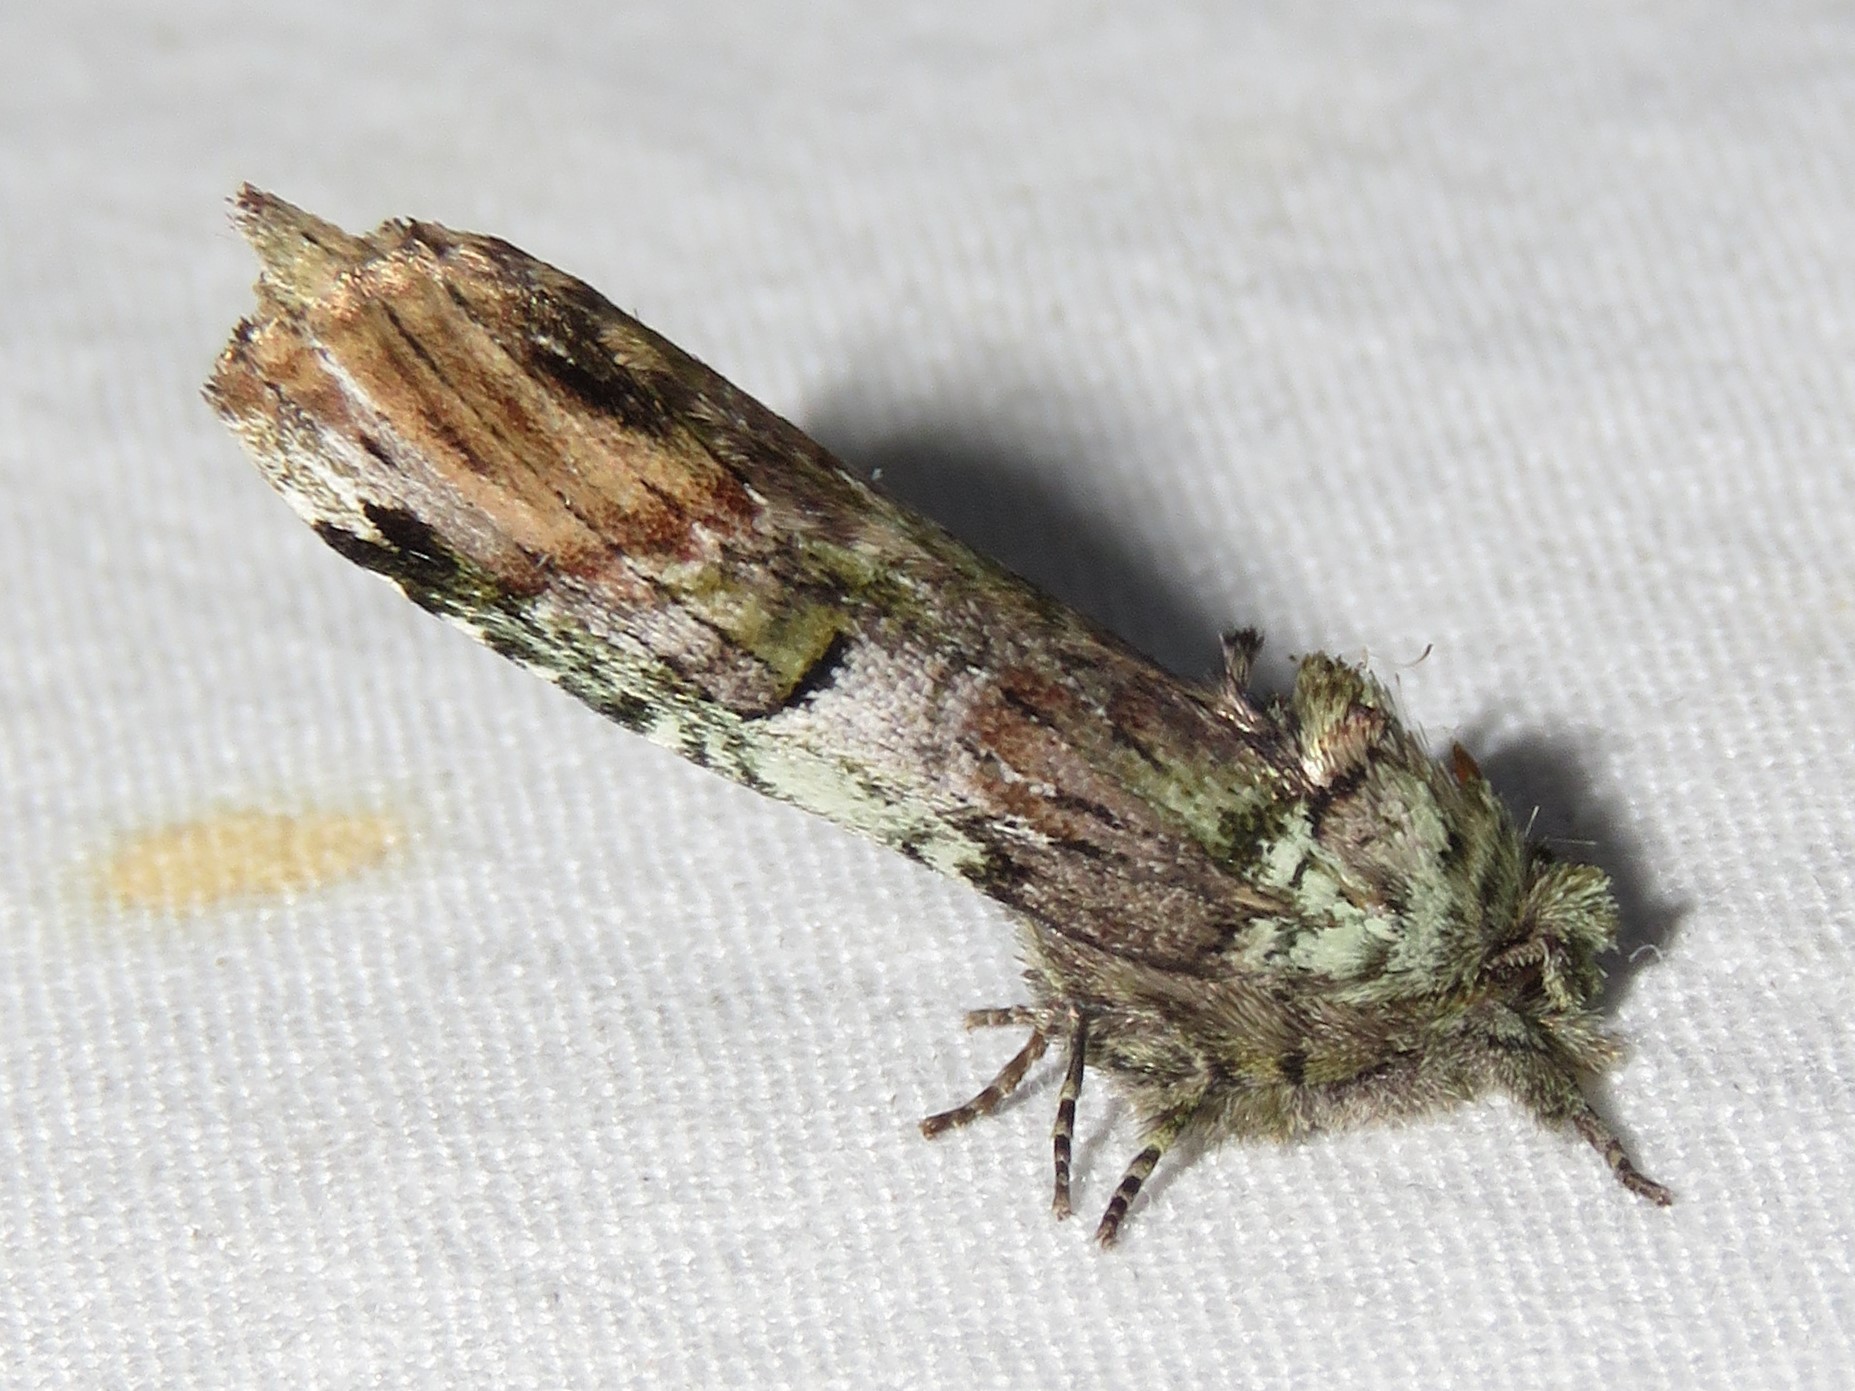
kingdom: Animalia
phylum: Arthropoda
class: Insecta
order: Lepidoptera
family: Notodontidae
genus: Schizura
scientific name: Schizura
